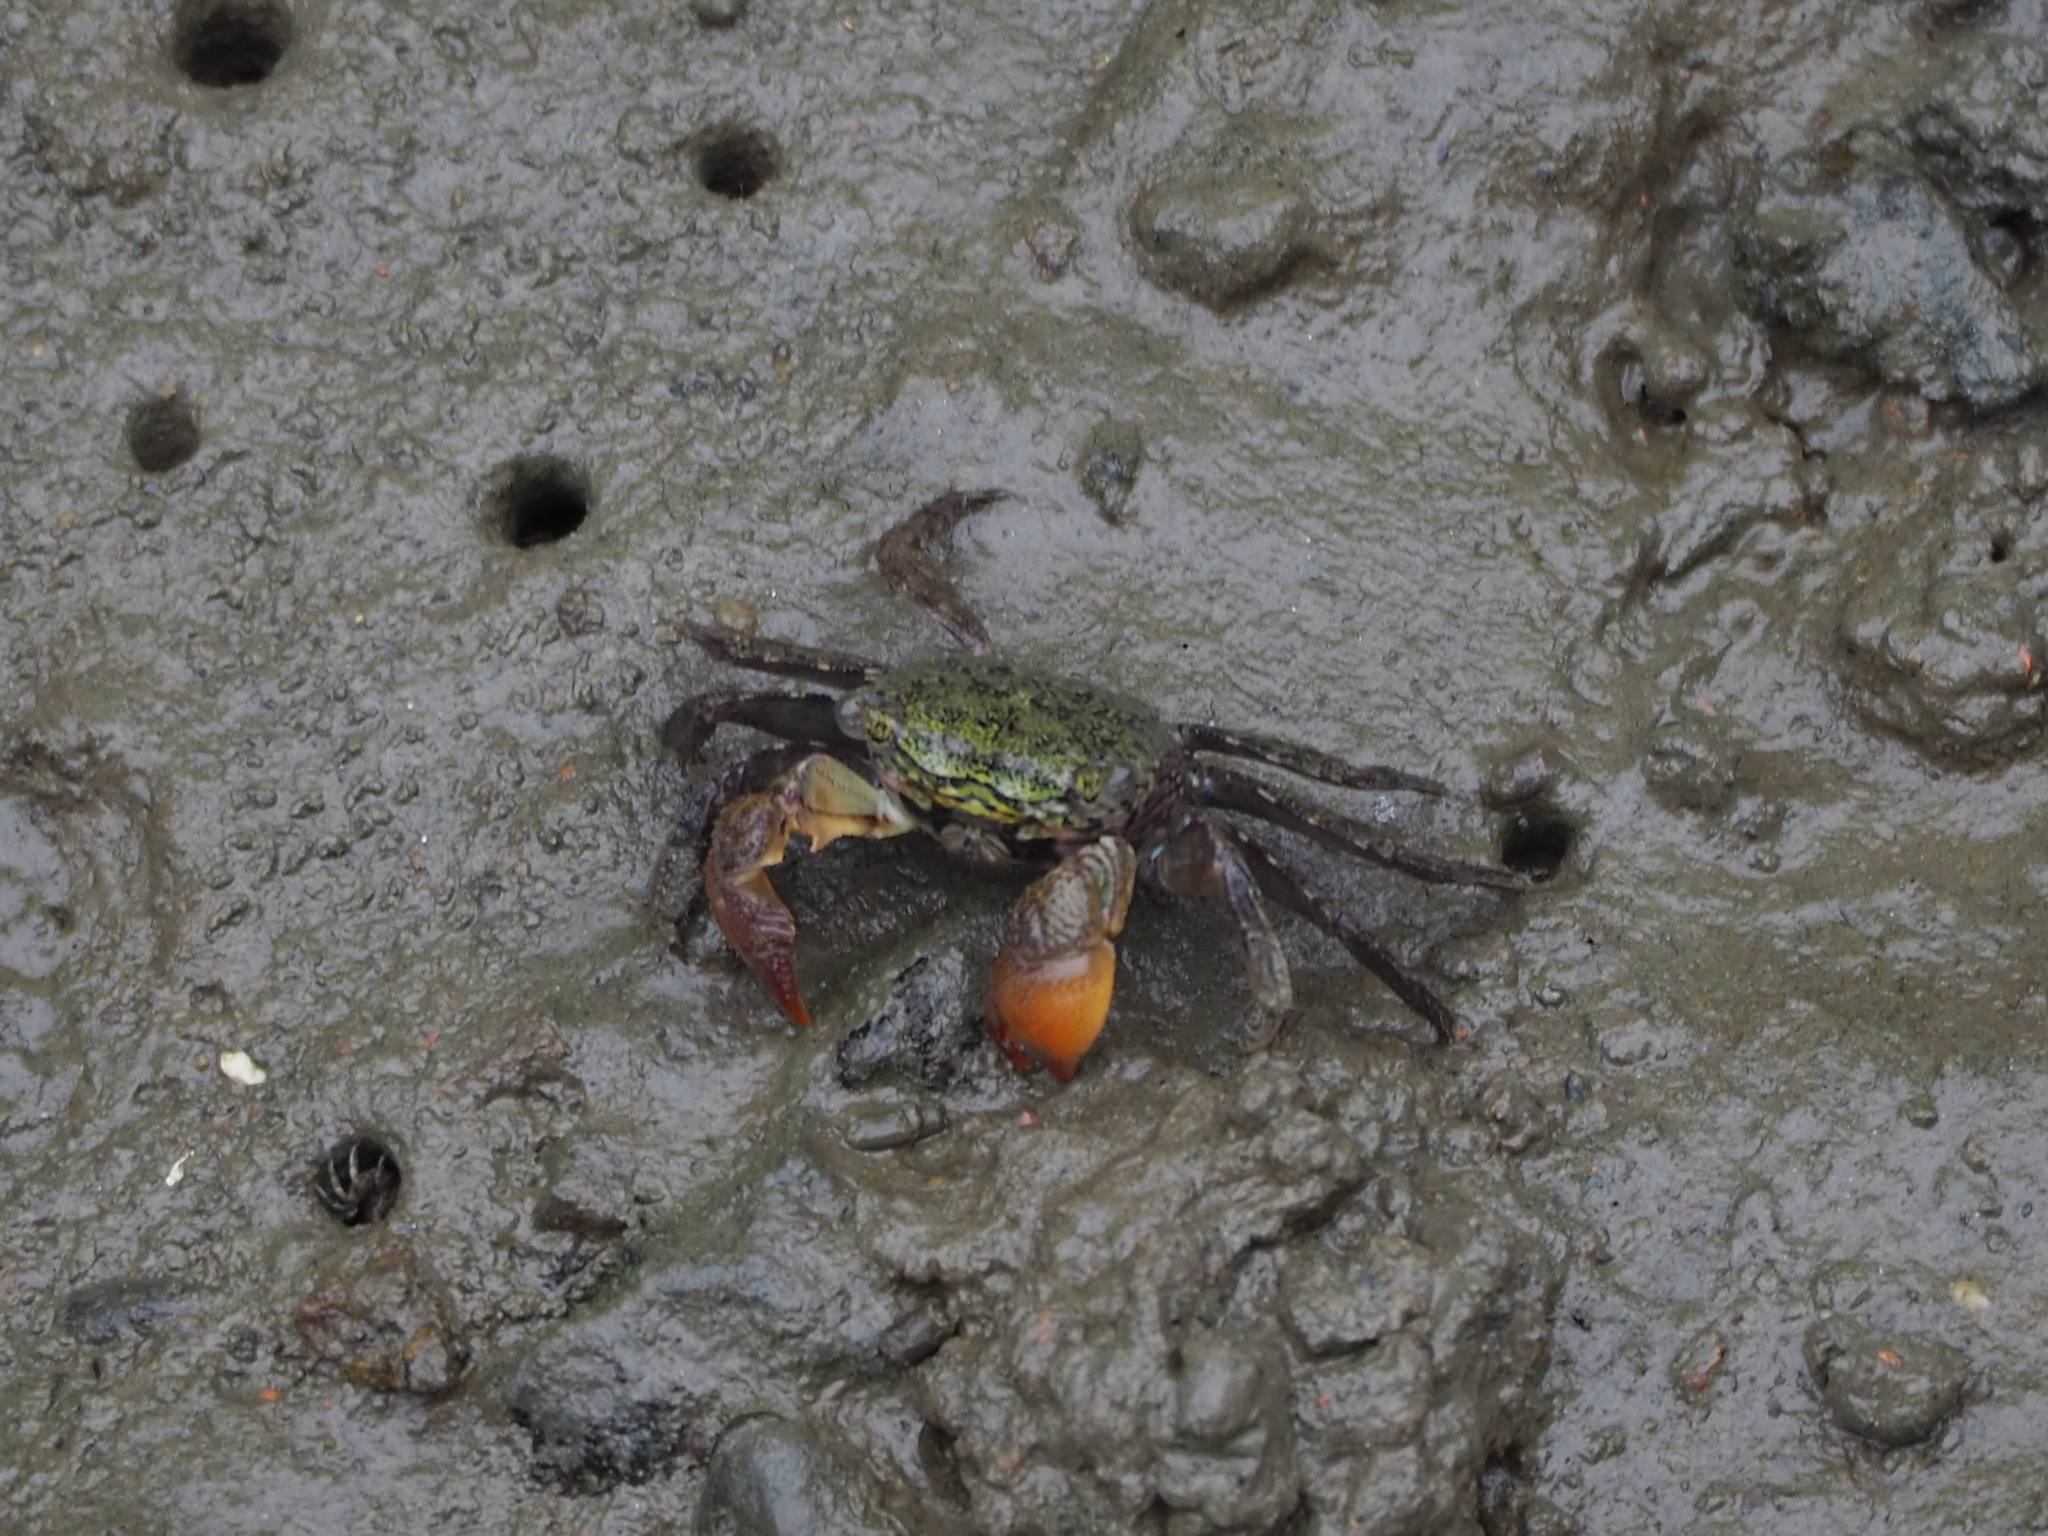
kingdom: Animalia
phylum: Arthropoda
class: Malacostraca
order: Decapoda
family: Sesarmidae
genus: Parasesarma
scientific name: Parasesarma bidens
